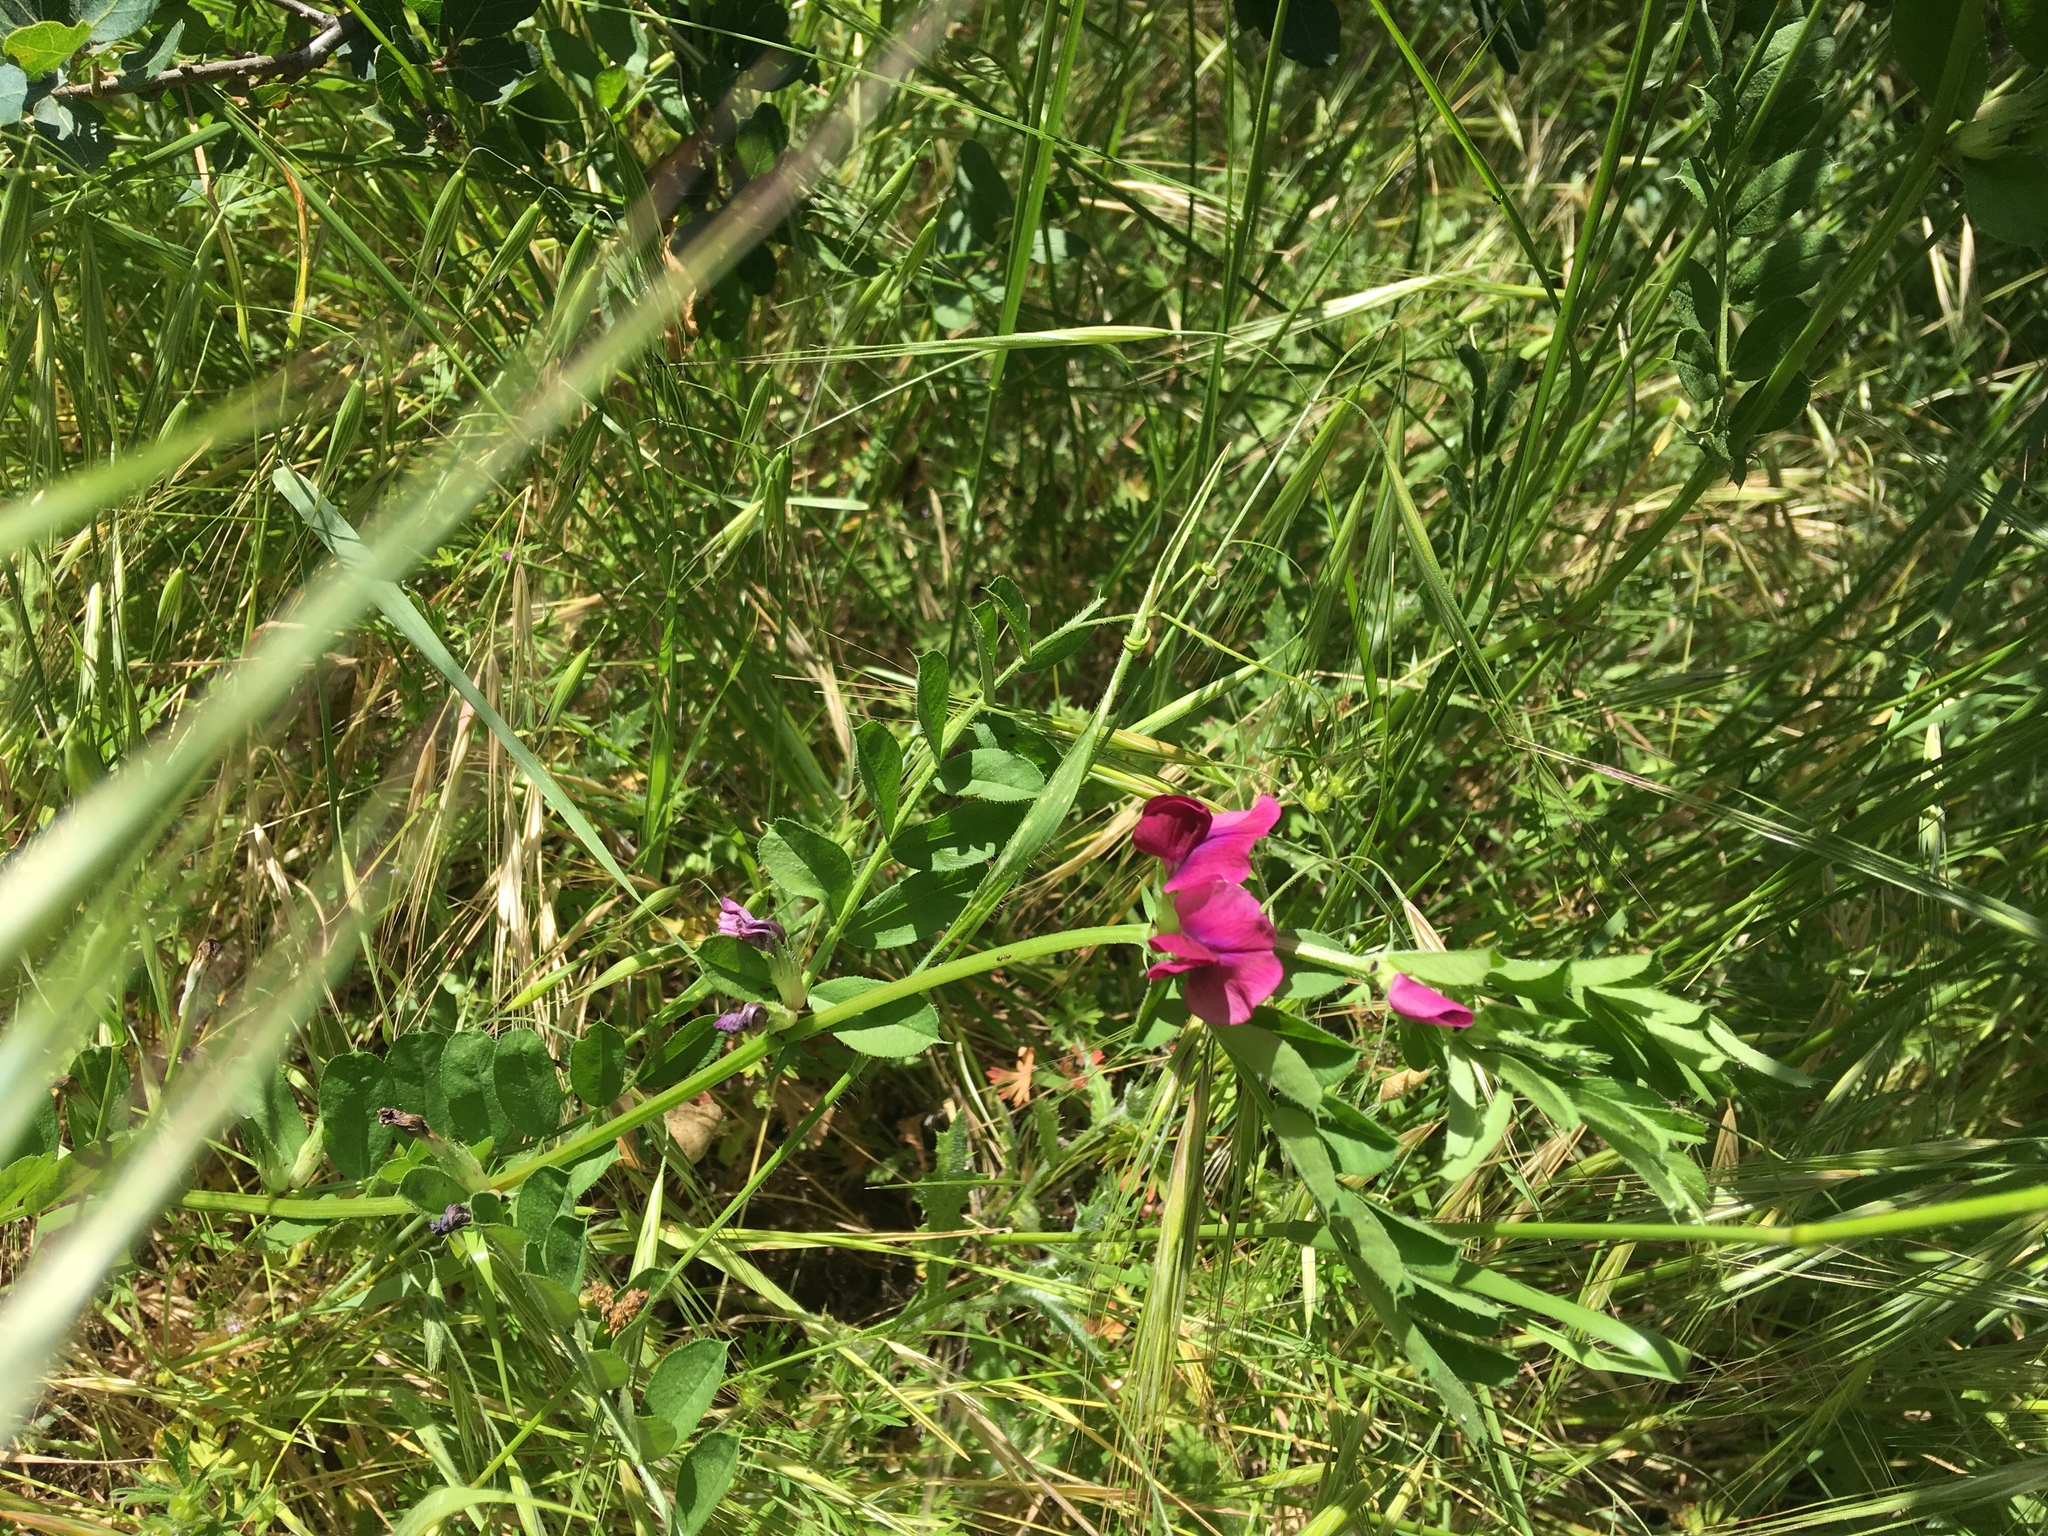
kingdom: Plantae
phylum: Tracheophyta
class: Magnoliopsida
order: Fabales
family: Fabaceae
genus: Vicia
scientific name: Vicia sativa
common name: Garden vetch
